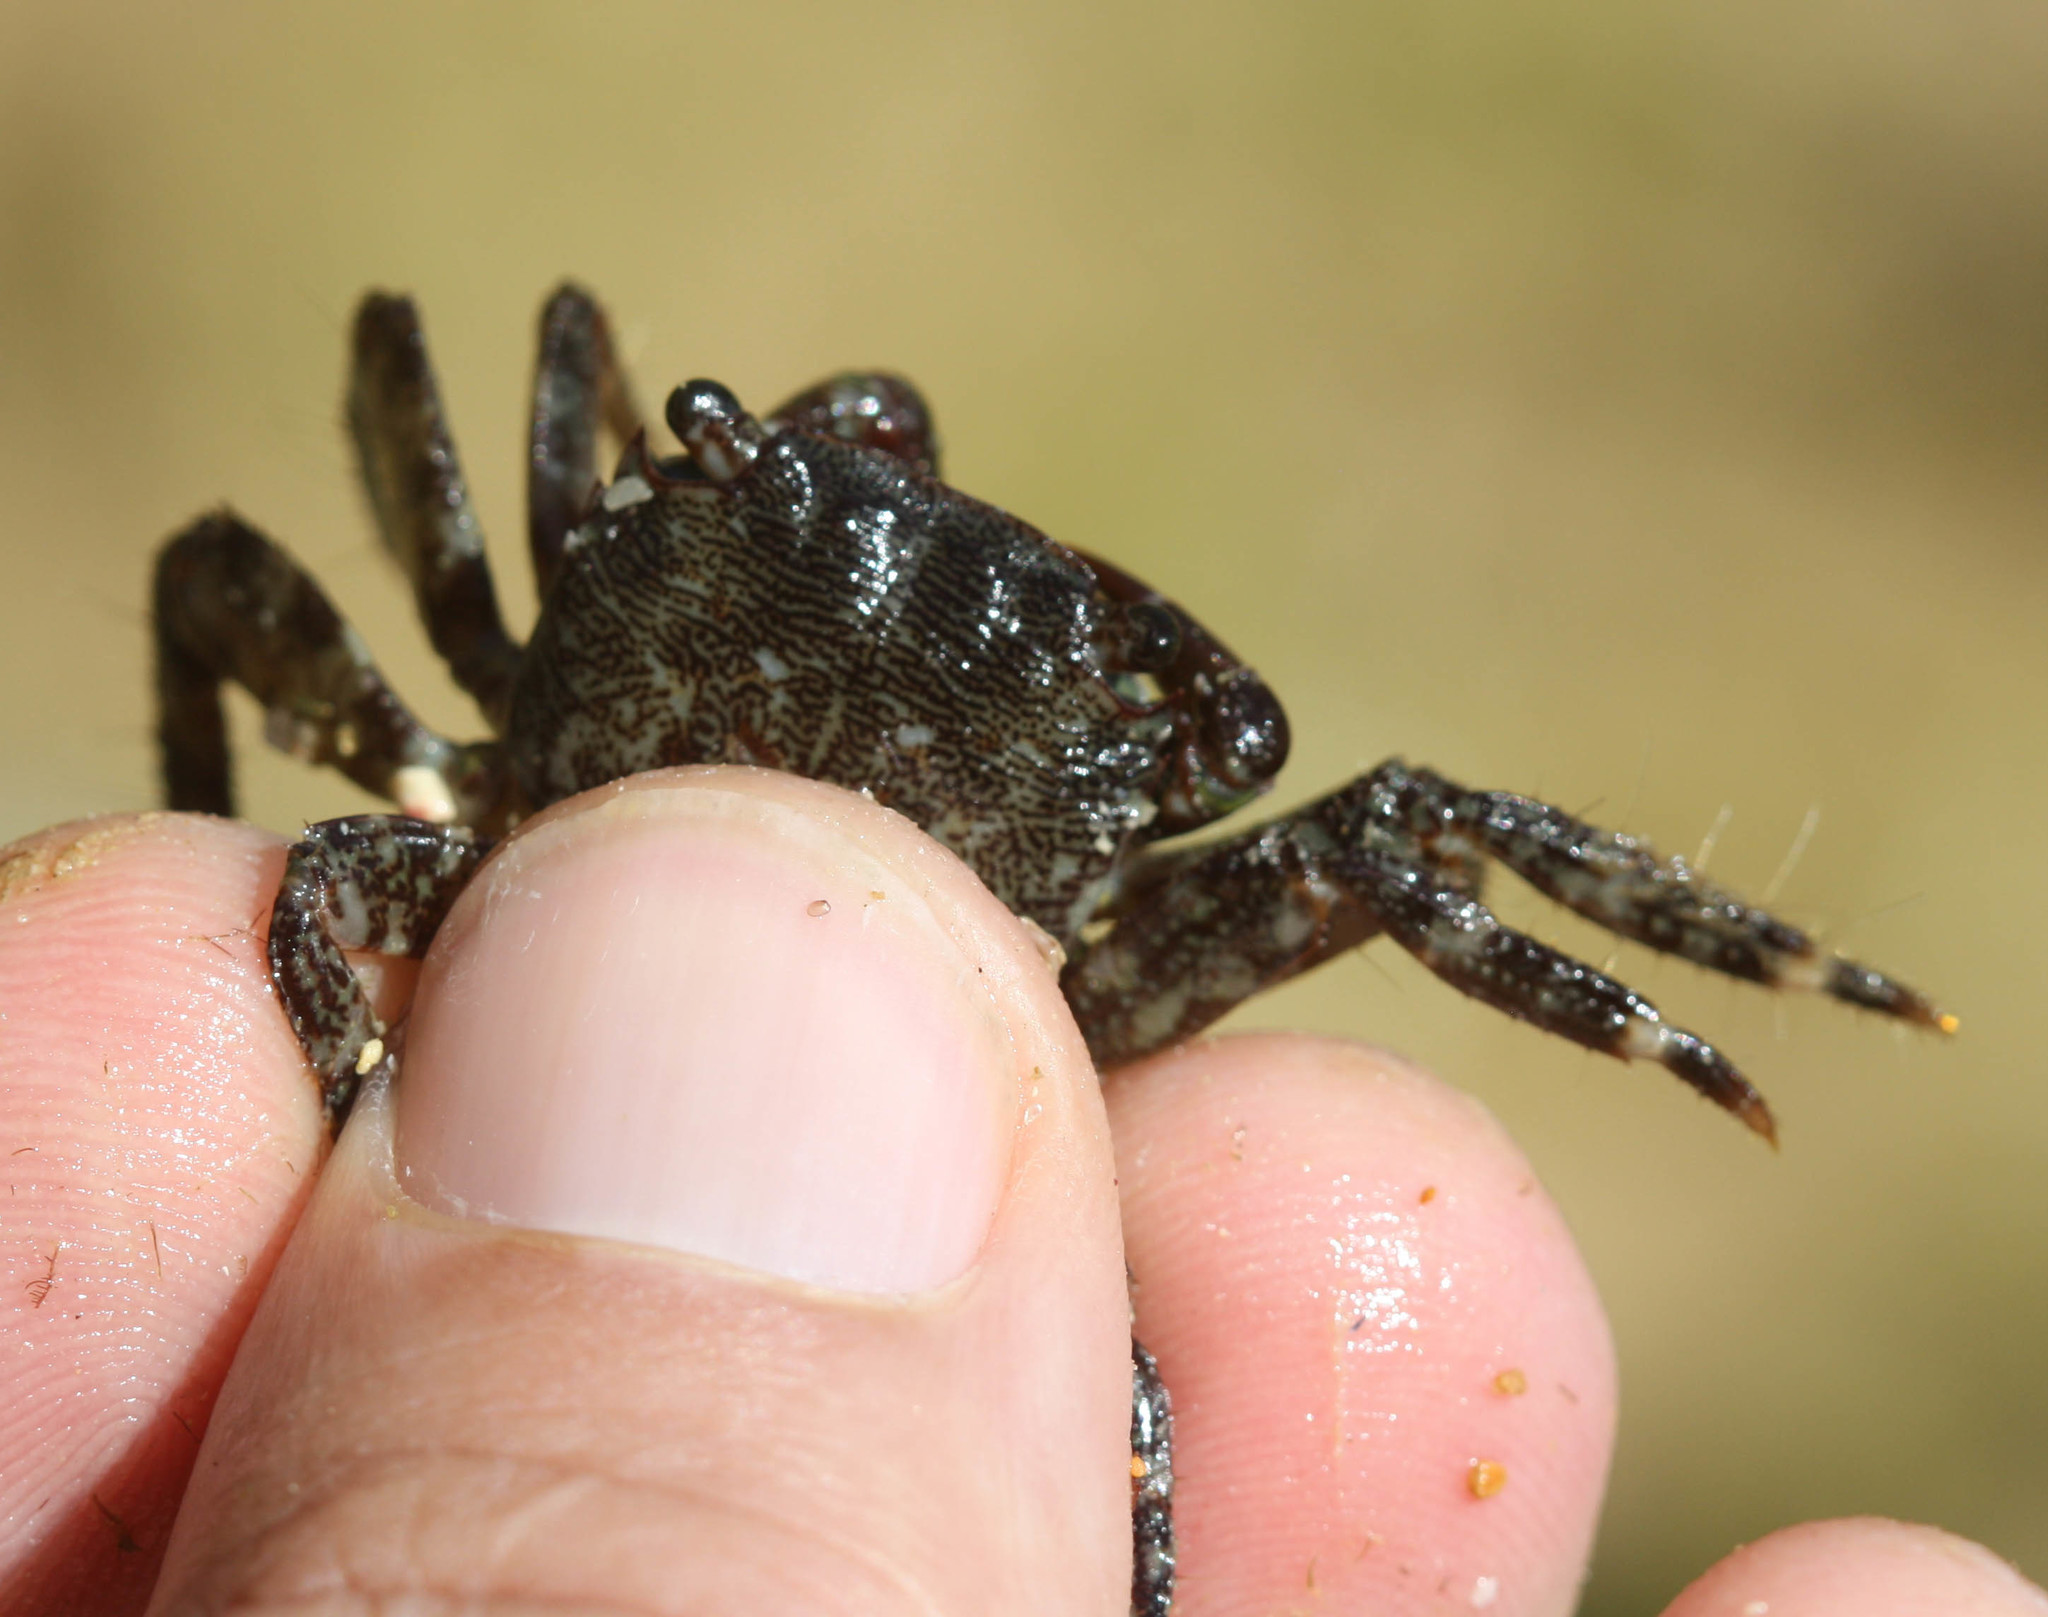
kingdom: Animalia
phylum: Arthropoda
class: Malacostraca
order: Decapoda
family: Grapsidae
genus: Pachygrapsus
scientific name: Pachygrapsus marmoratus
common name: Marbled rock crab
